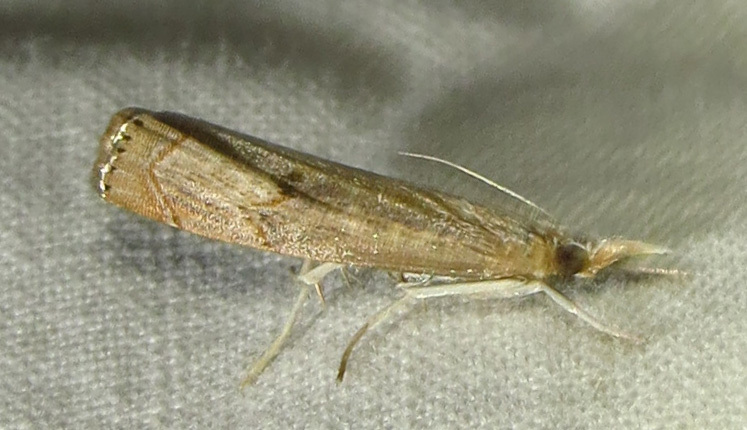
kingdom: Animalia
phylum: Arthropoda
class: Insecta
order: Lepidoptera
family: Crambidae
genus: Parapediasia
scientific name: Parapediasia teterellus
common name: Bluegrass webworm moth
